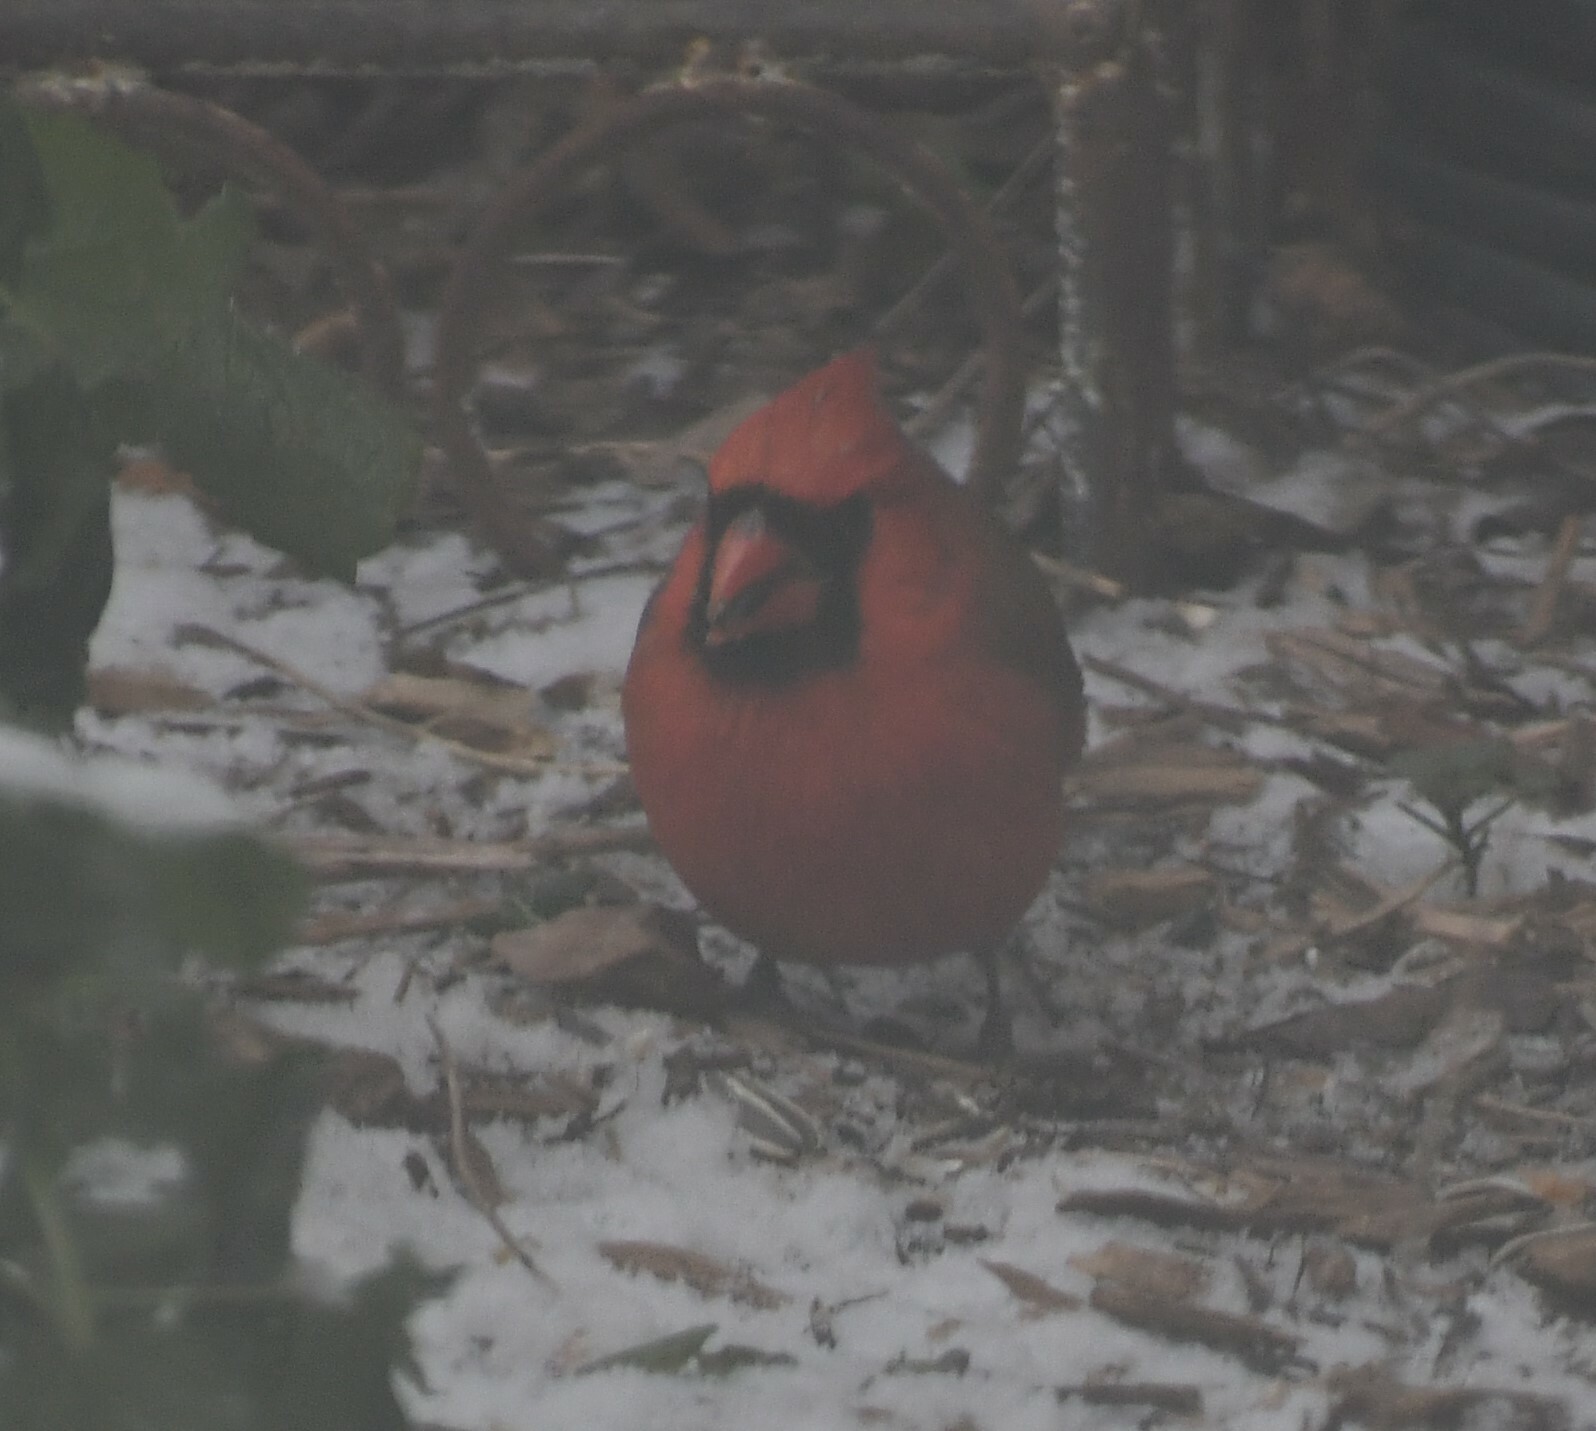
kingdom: Animalia
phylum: Chordata
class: Aves
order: Passeriformes
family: Cardinalidae
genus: Cardinalis
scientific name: Cardinalis cardinalis
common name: Northern cardinal
